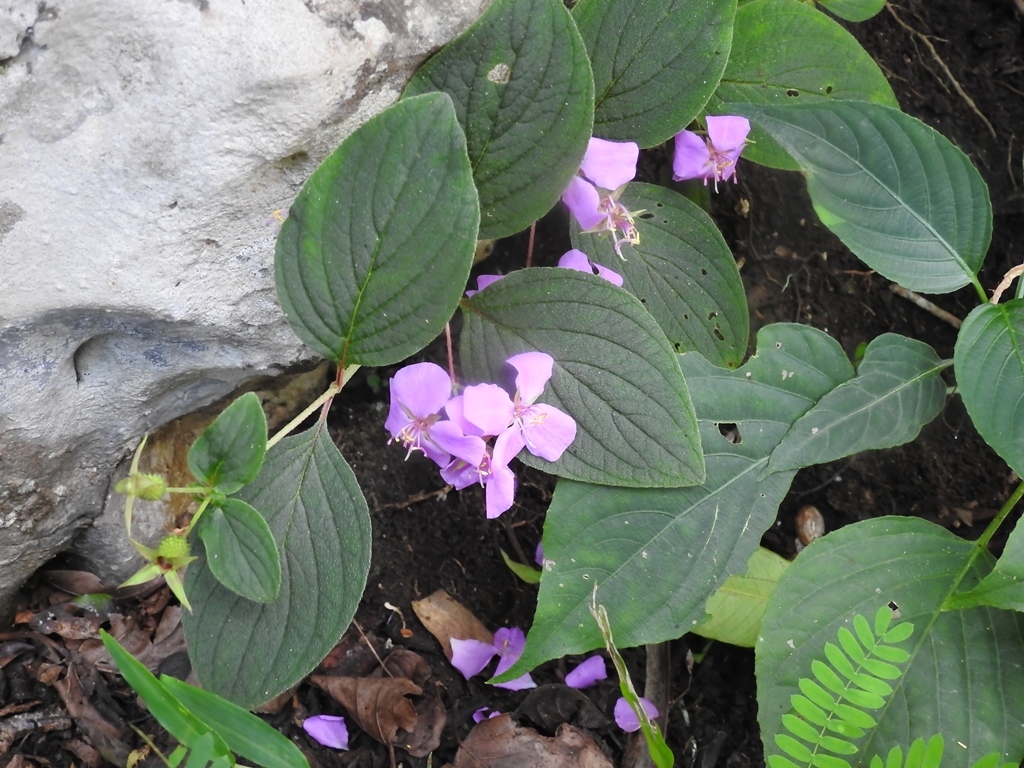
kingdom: Plantae
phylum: Tracheophyta
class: Magnoliopsida
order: Myrtales
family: Melastomataceae
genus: Heterocentron
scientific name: Heterocentron muricatum
